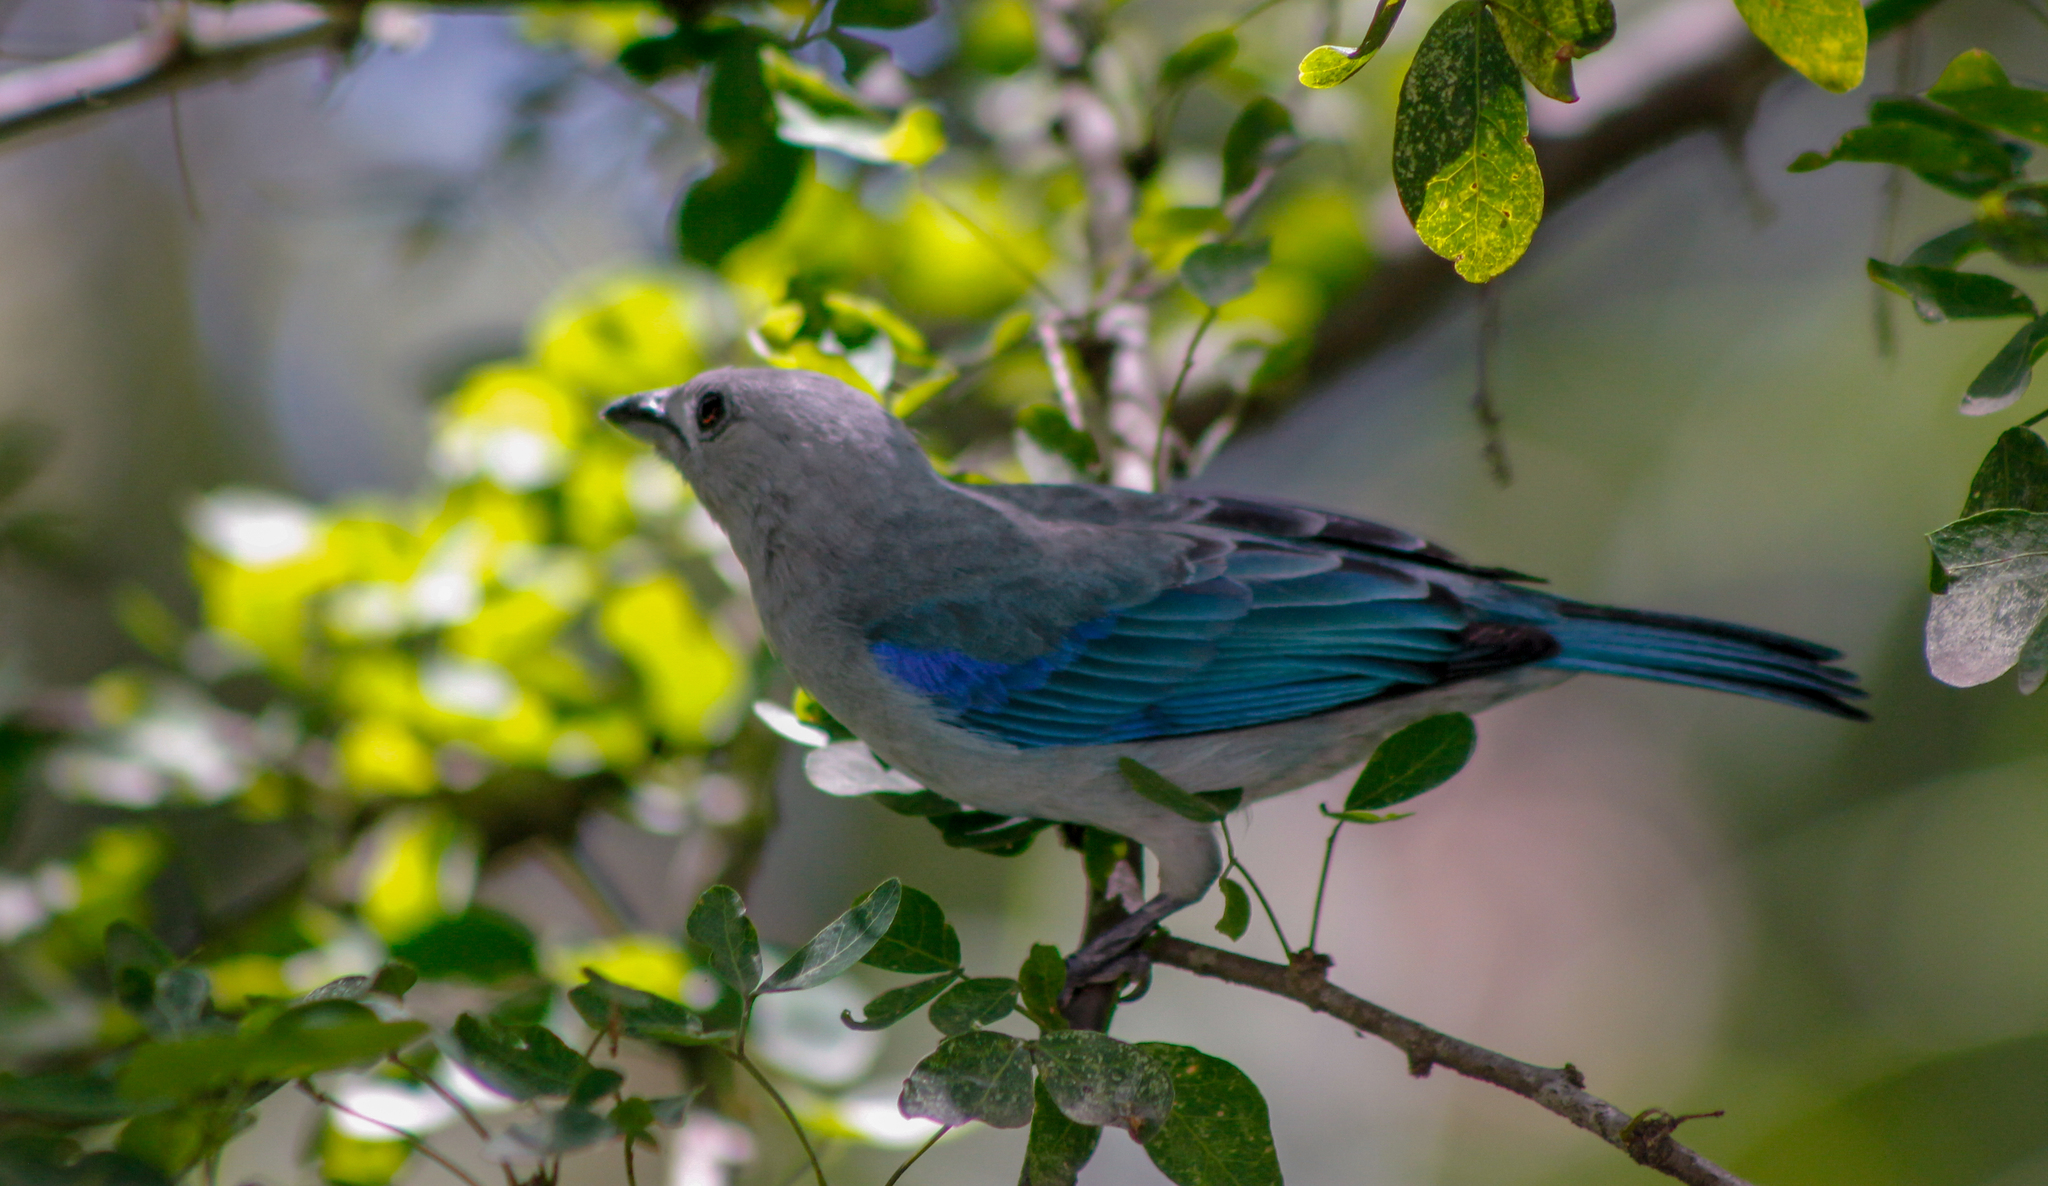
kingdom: Animalia
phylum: Chordata
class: Aves
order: Passeriformes
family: Thraupidae
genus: Thraupis
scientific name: Thraupis episcopus
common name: Blue-grey tanager
